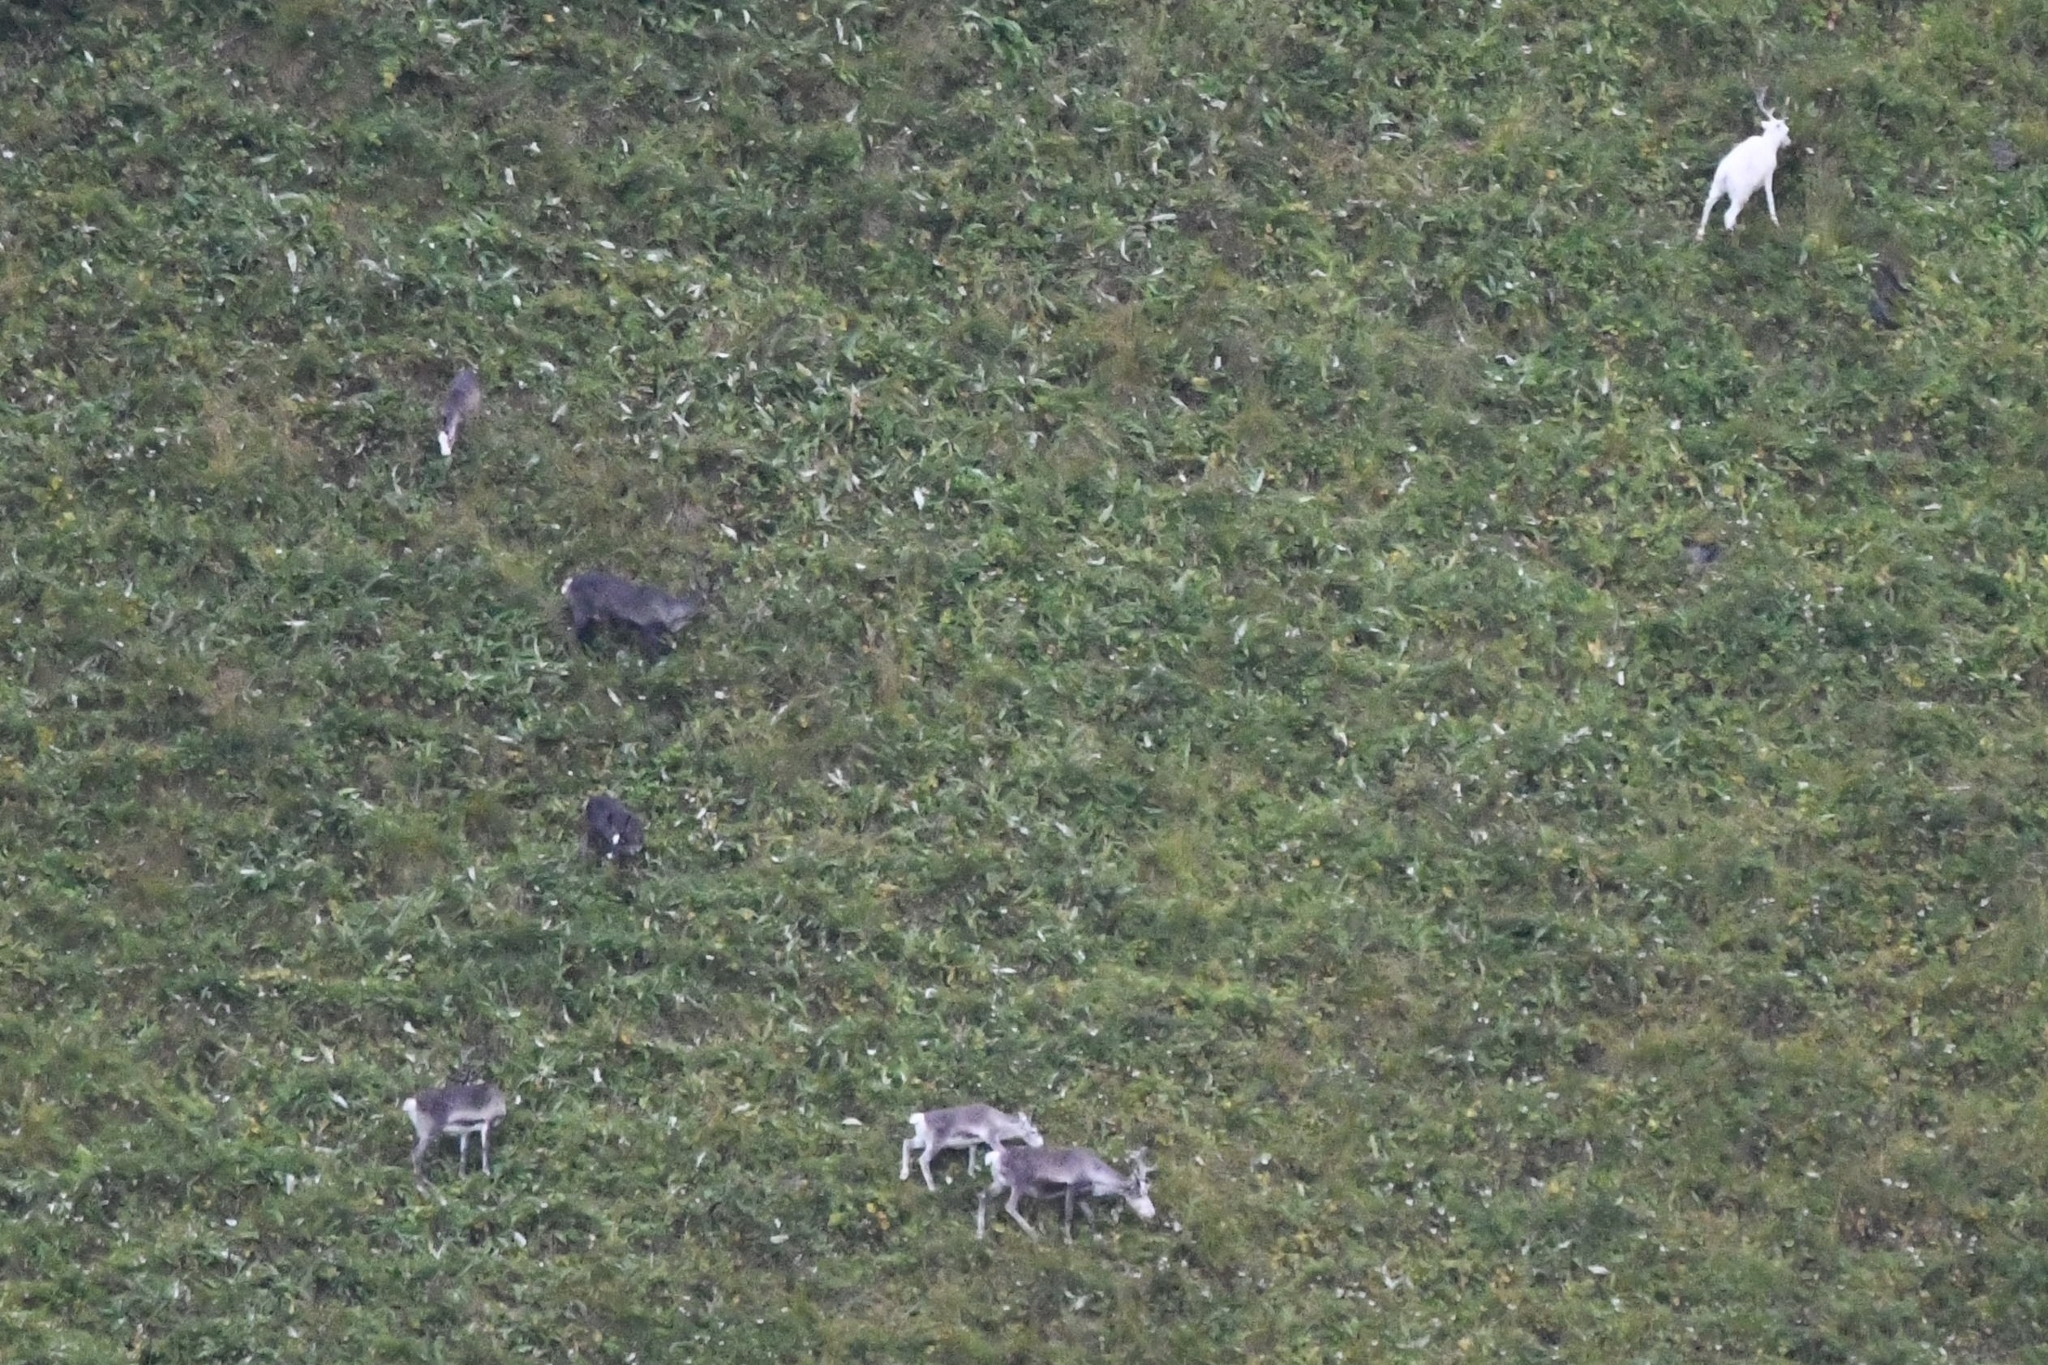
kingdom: Animalia
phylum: Chordata
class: Mammalia
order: Artiodactyla
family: Cervidae
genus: Rangifer
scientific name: Rangifer tarandus
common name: Reindeer
